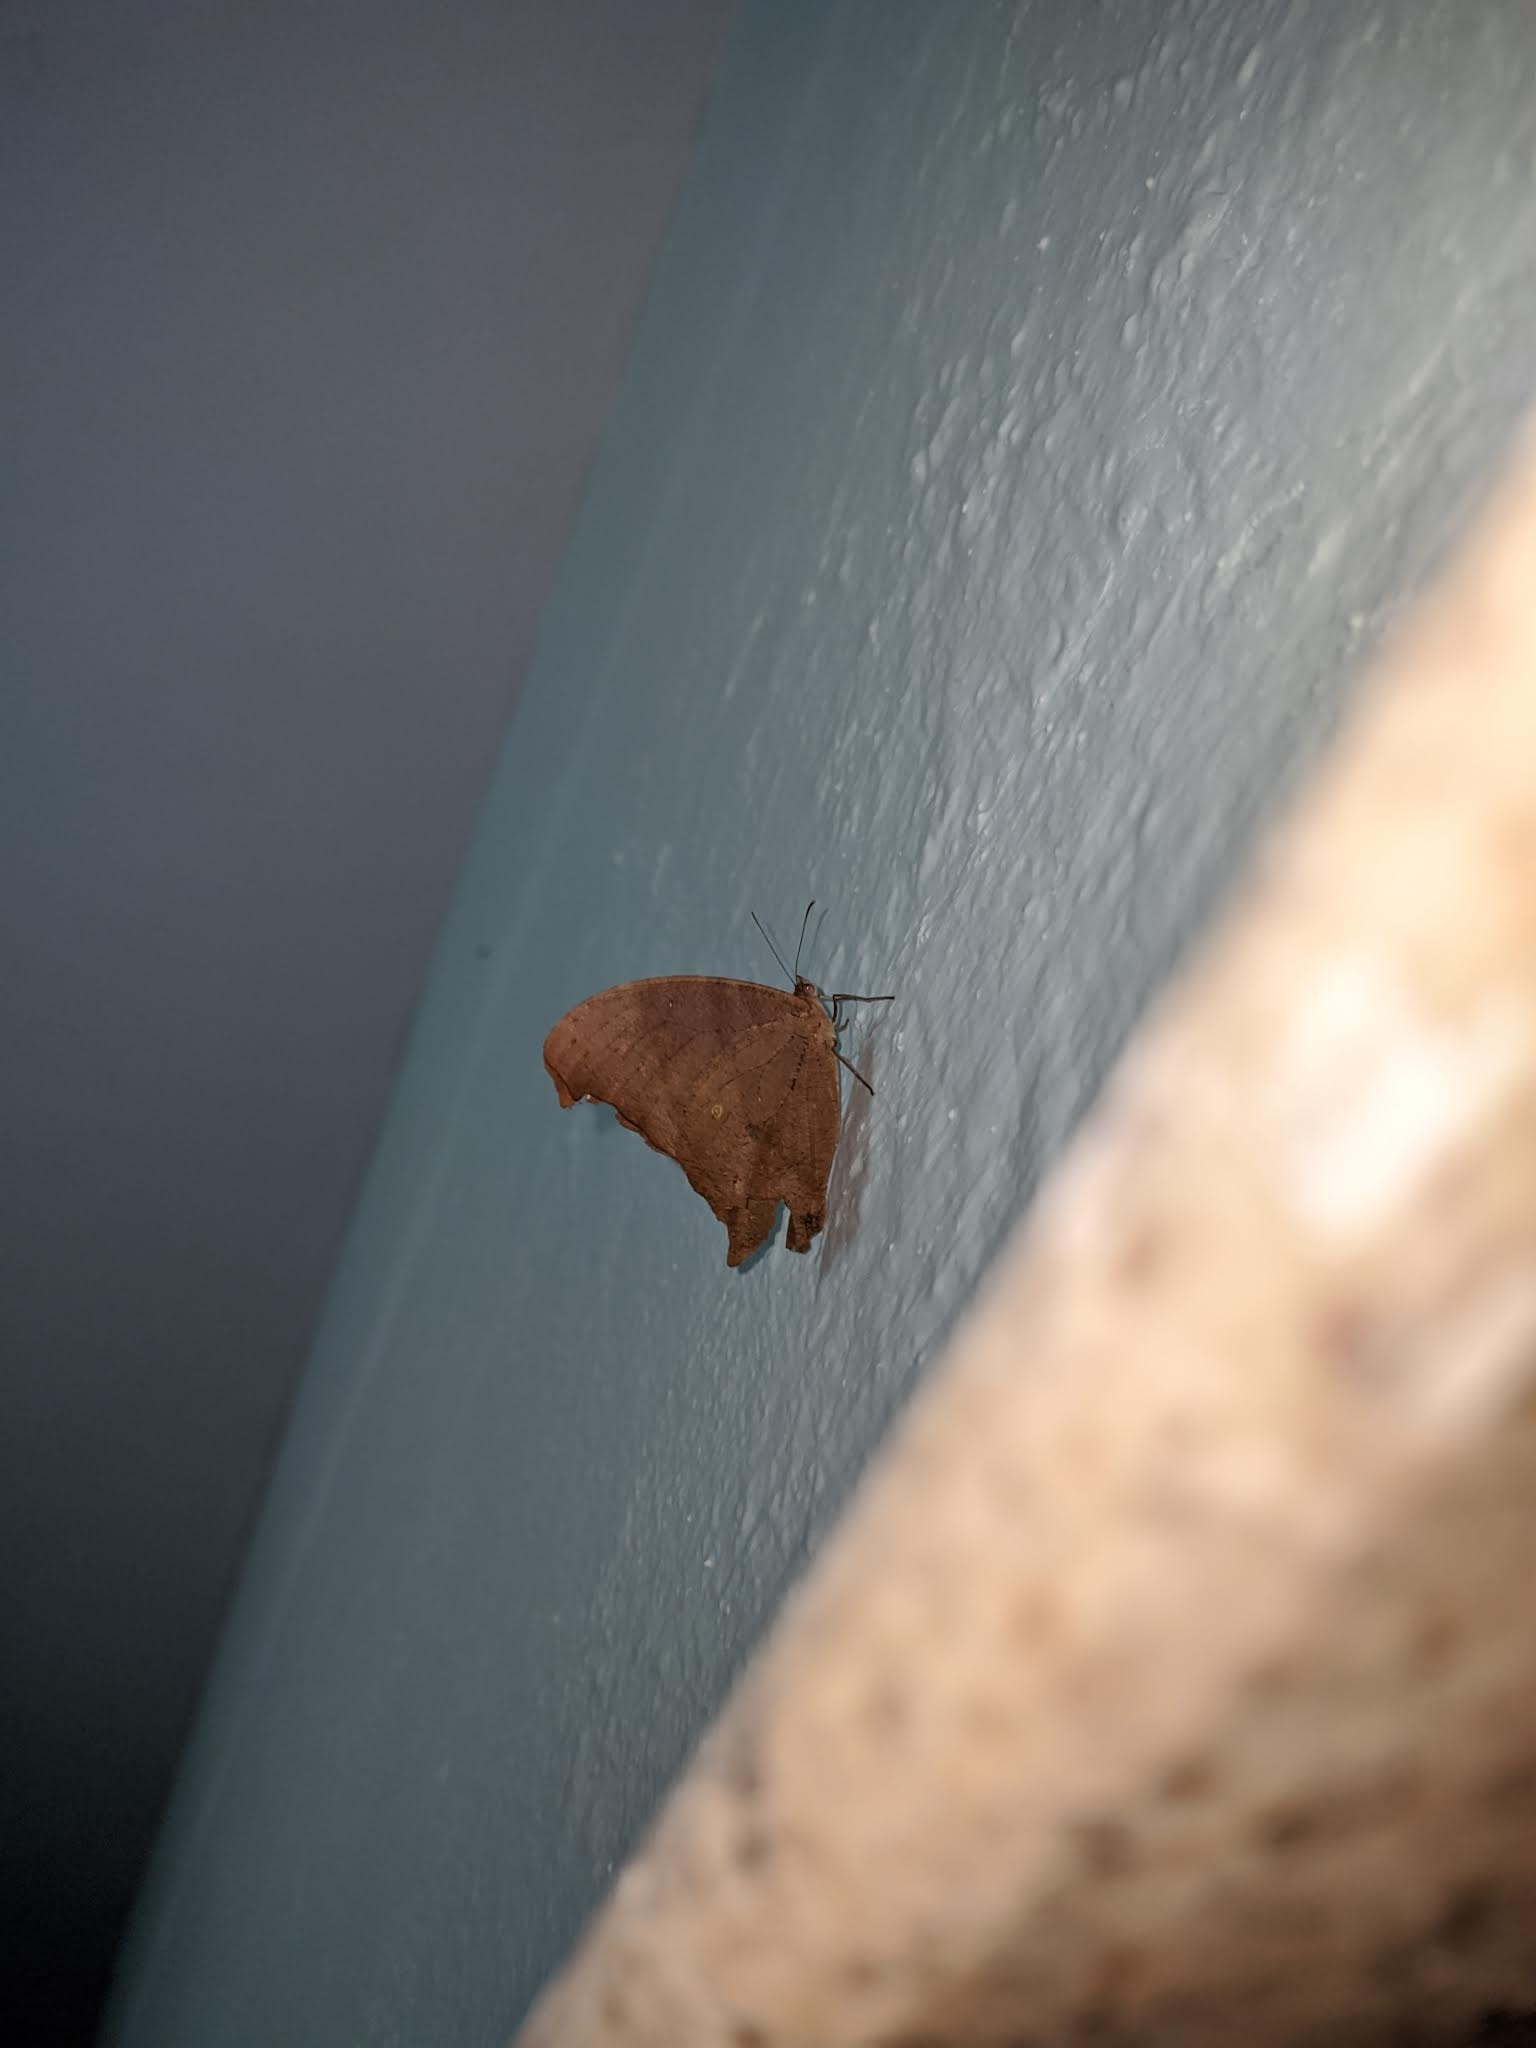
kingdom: Animalia
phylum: Arthropoda
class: Insecta
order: Lepidoptera
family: Nymphalidae
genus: Melanitis
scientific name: Melanitis leda
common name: Twilight brown
